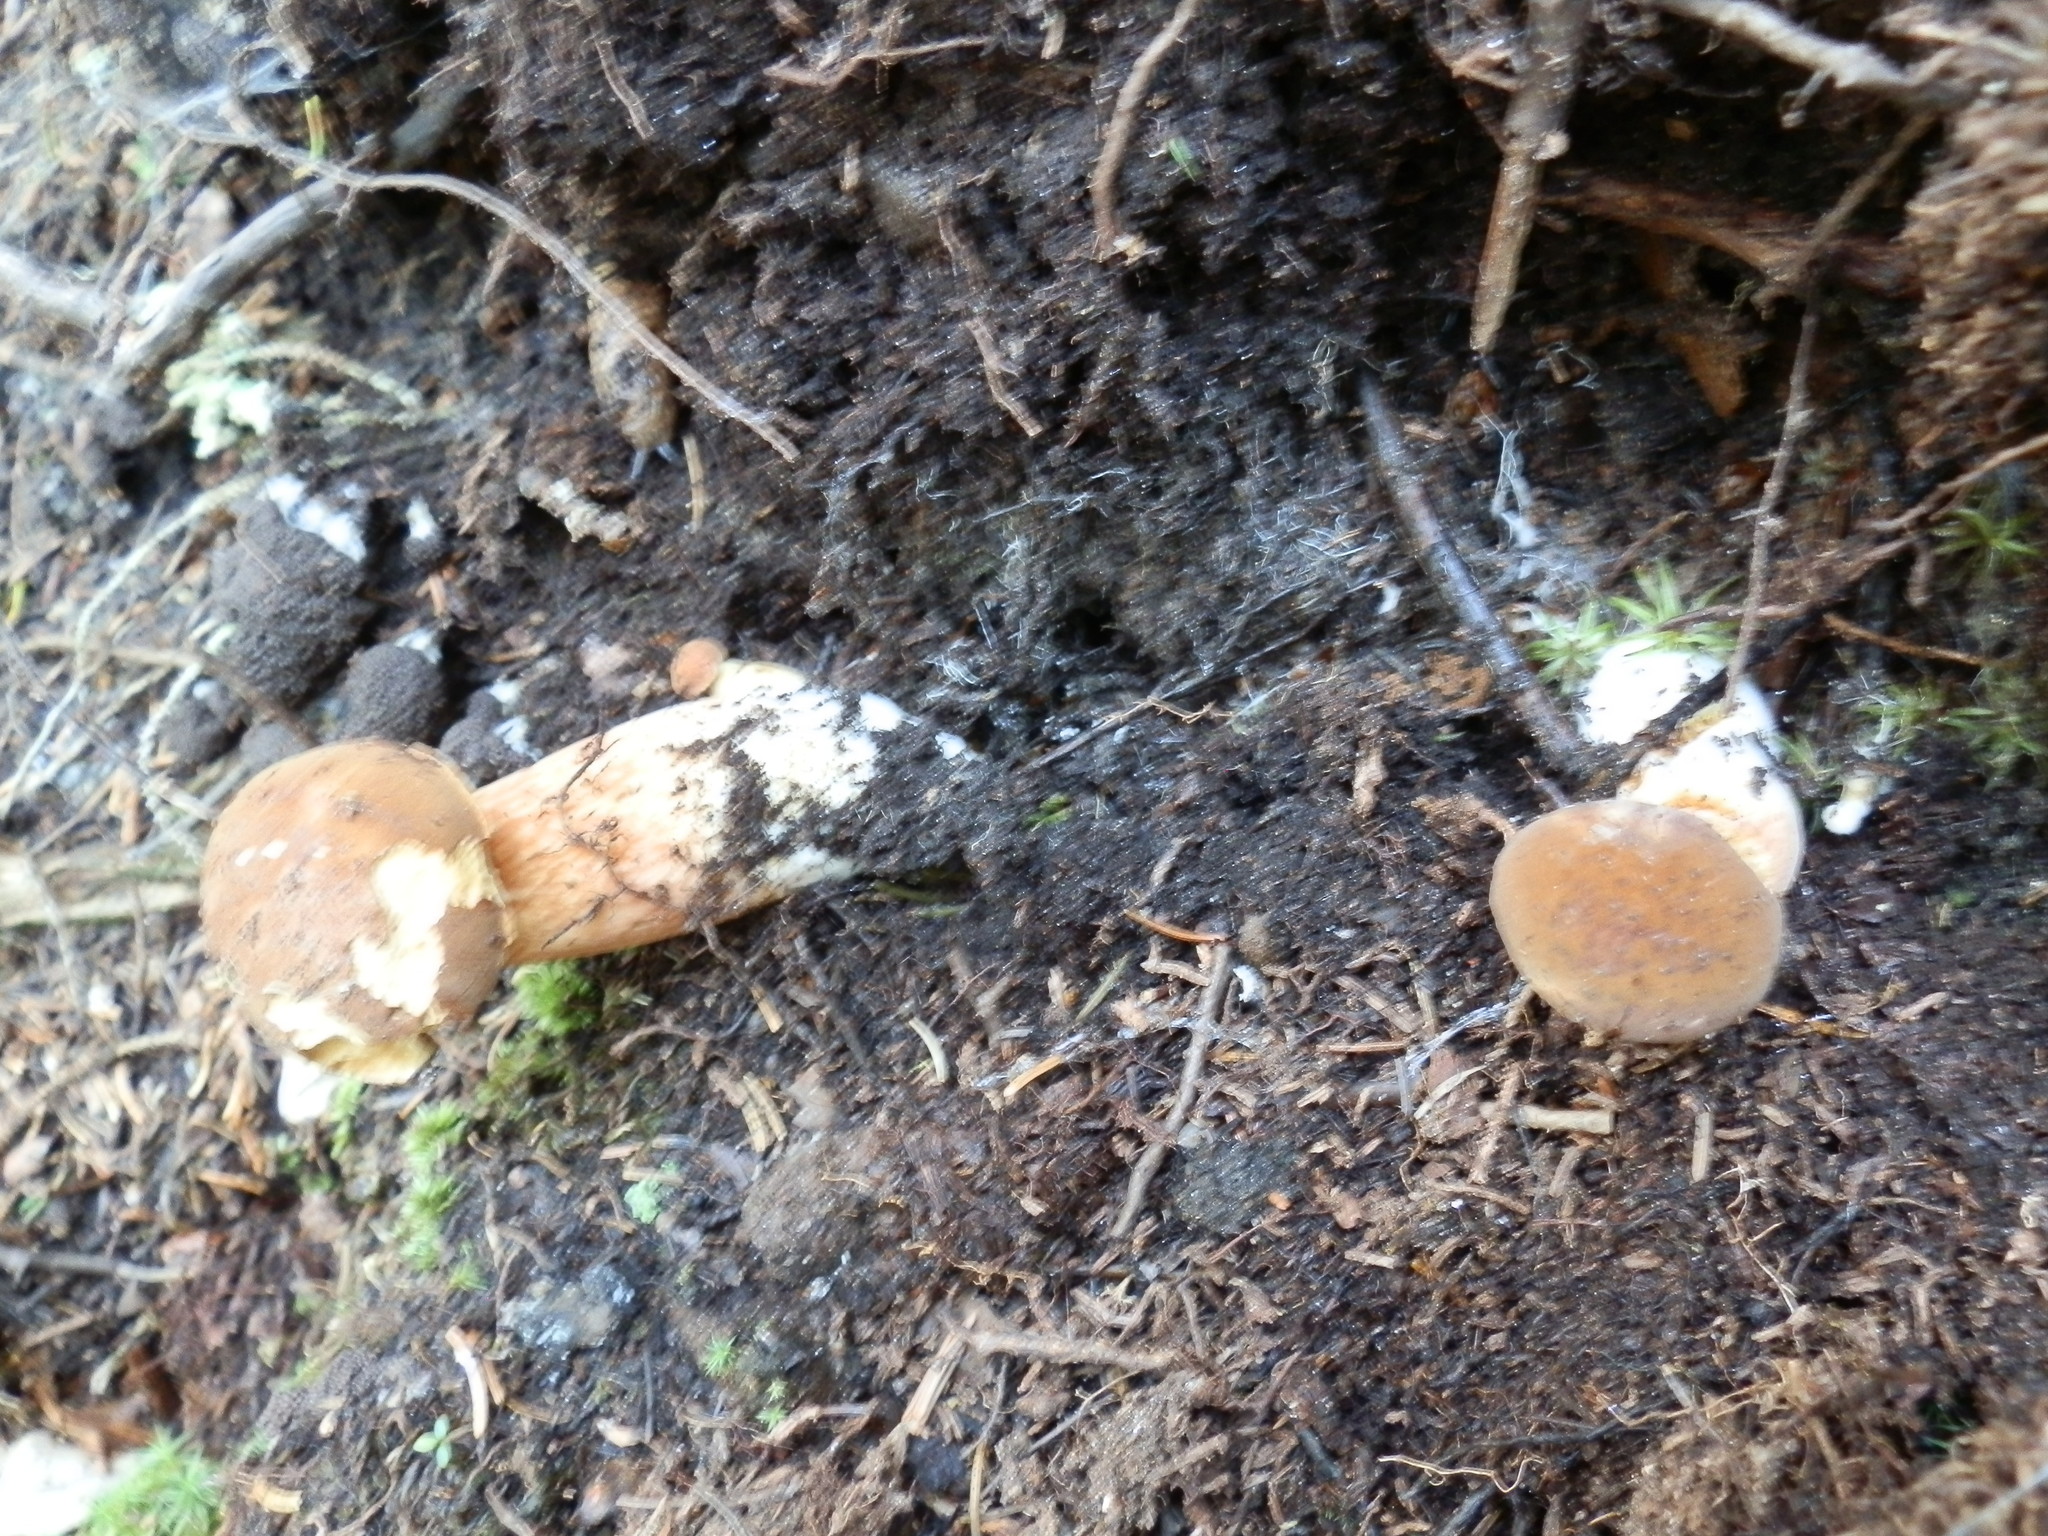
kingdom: Fungi
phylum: Basidiomycota
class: Agaricomycetes
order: Boletales
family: Boletaceae
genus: Xanthoconium
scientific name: Xanthoconium affine
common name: Spotted bolete
